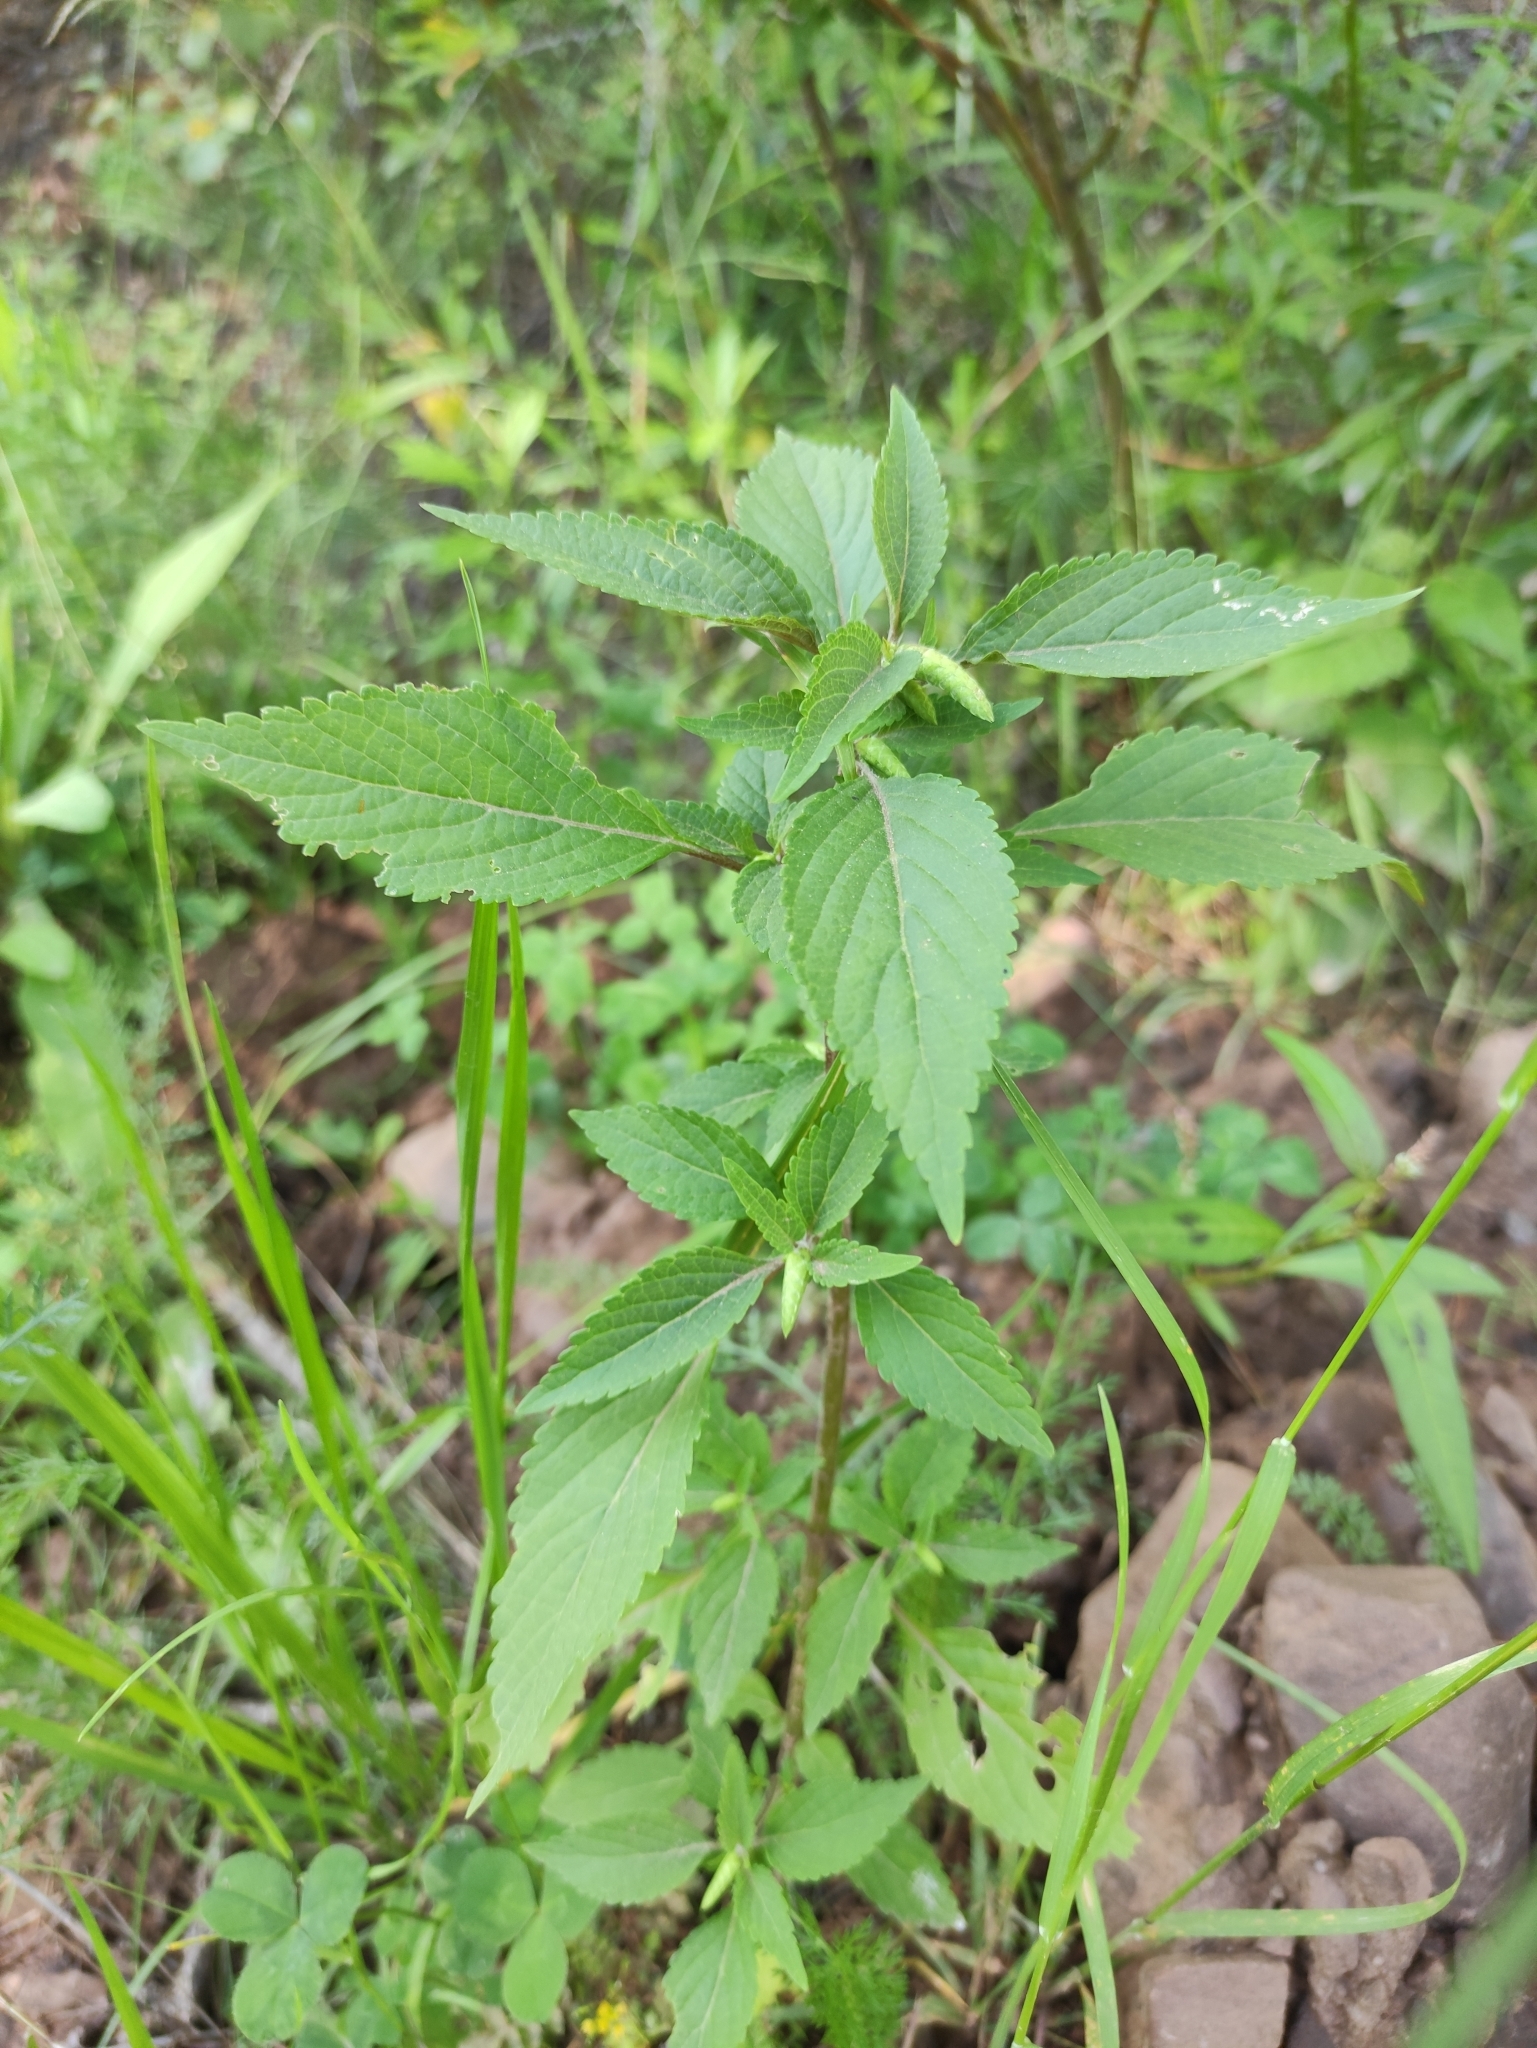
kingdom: Plantae
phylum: Tracheophyta
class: Magnoliopsida
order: Lamiales
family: Lamiaceae
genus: Elsholtzia
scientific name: Elsholtzia ciliata
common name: Ciliate elsholtzia
